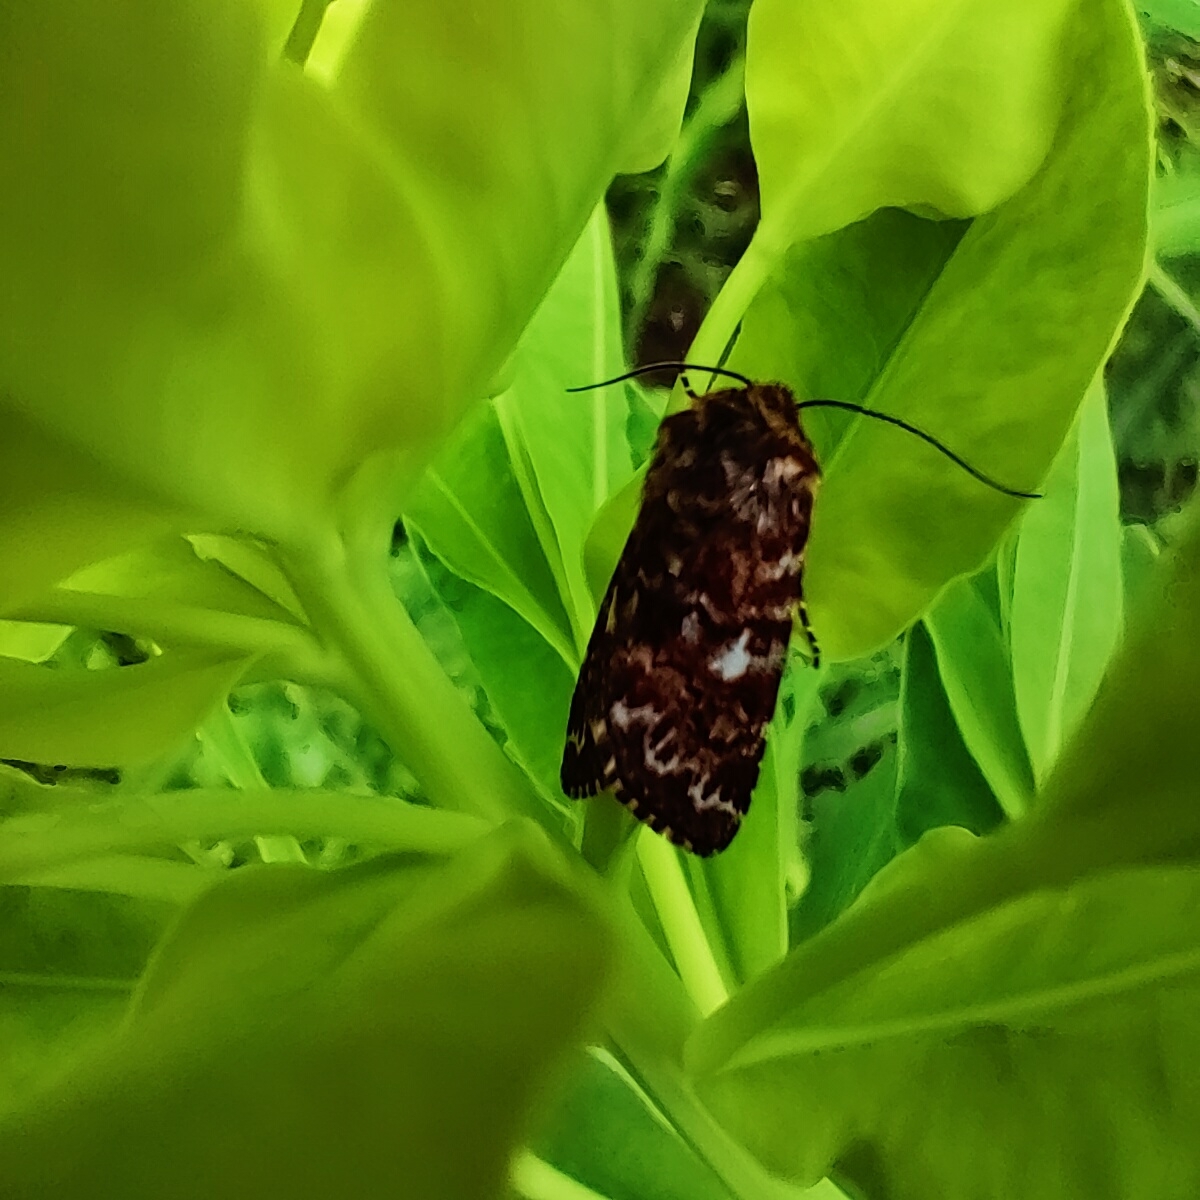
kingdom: Animalia
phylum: Arthropoda
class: Insecta
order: Lepidoptera
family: Noctuidae
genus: Anarta
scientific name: Anarta myrtilli
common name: Beautiful yellow underwing
